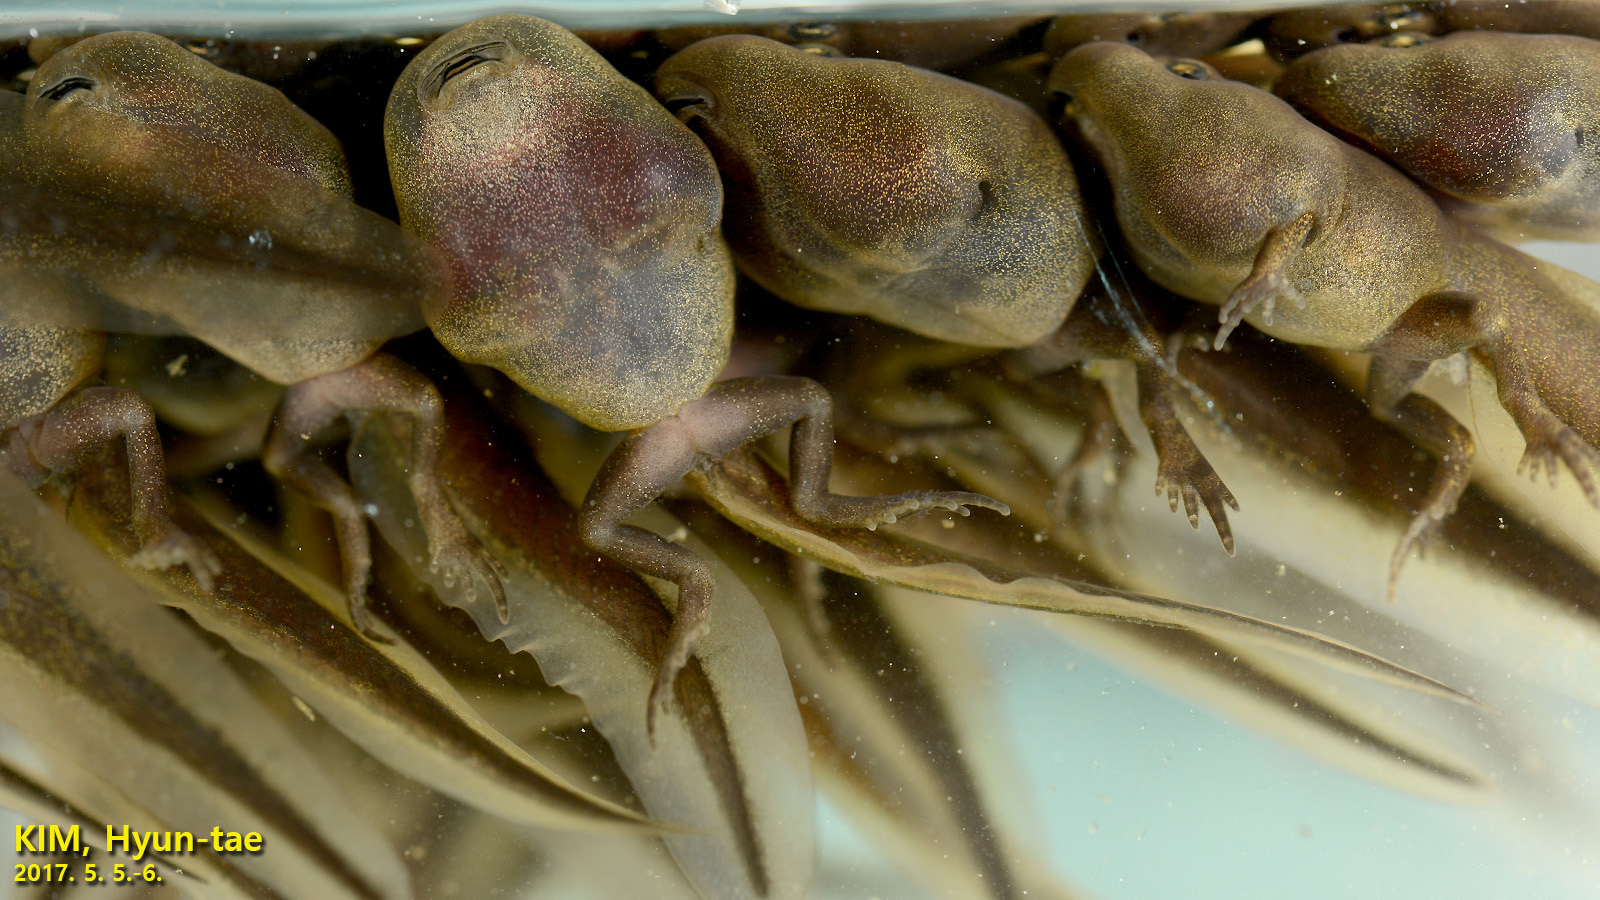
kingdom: Animalia
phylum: Chordata
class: Amphibia
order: Anura
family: Bufonidae
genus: Bufo
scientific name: Bufo gargarizans
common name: Asiatic toad
